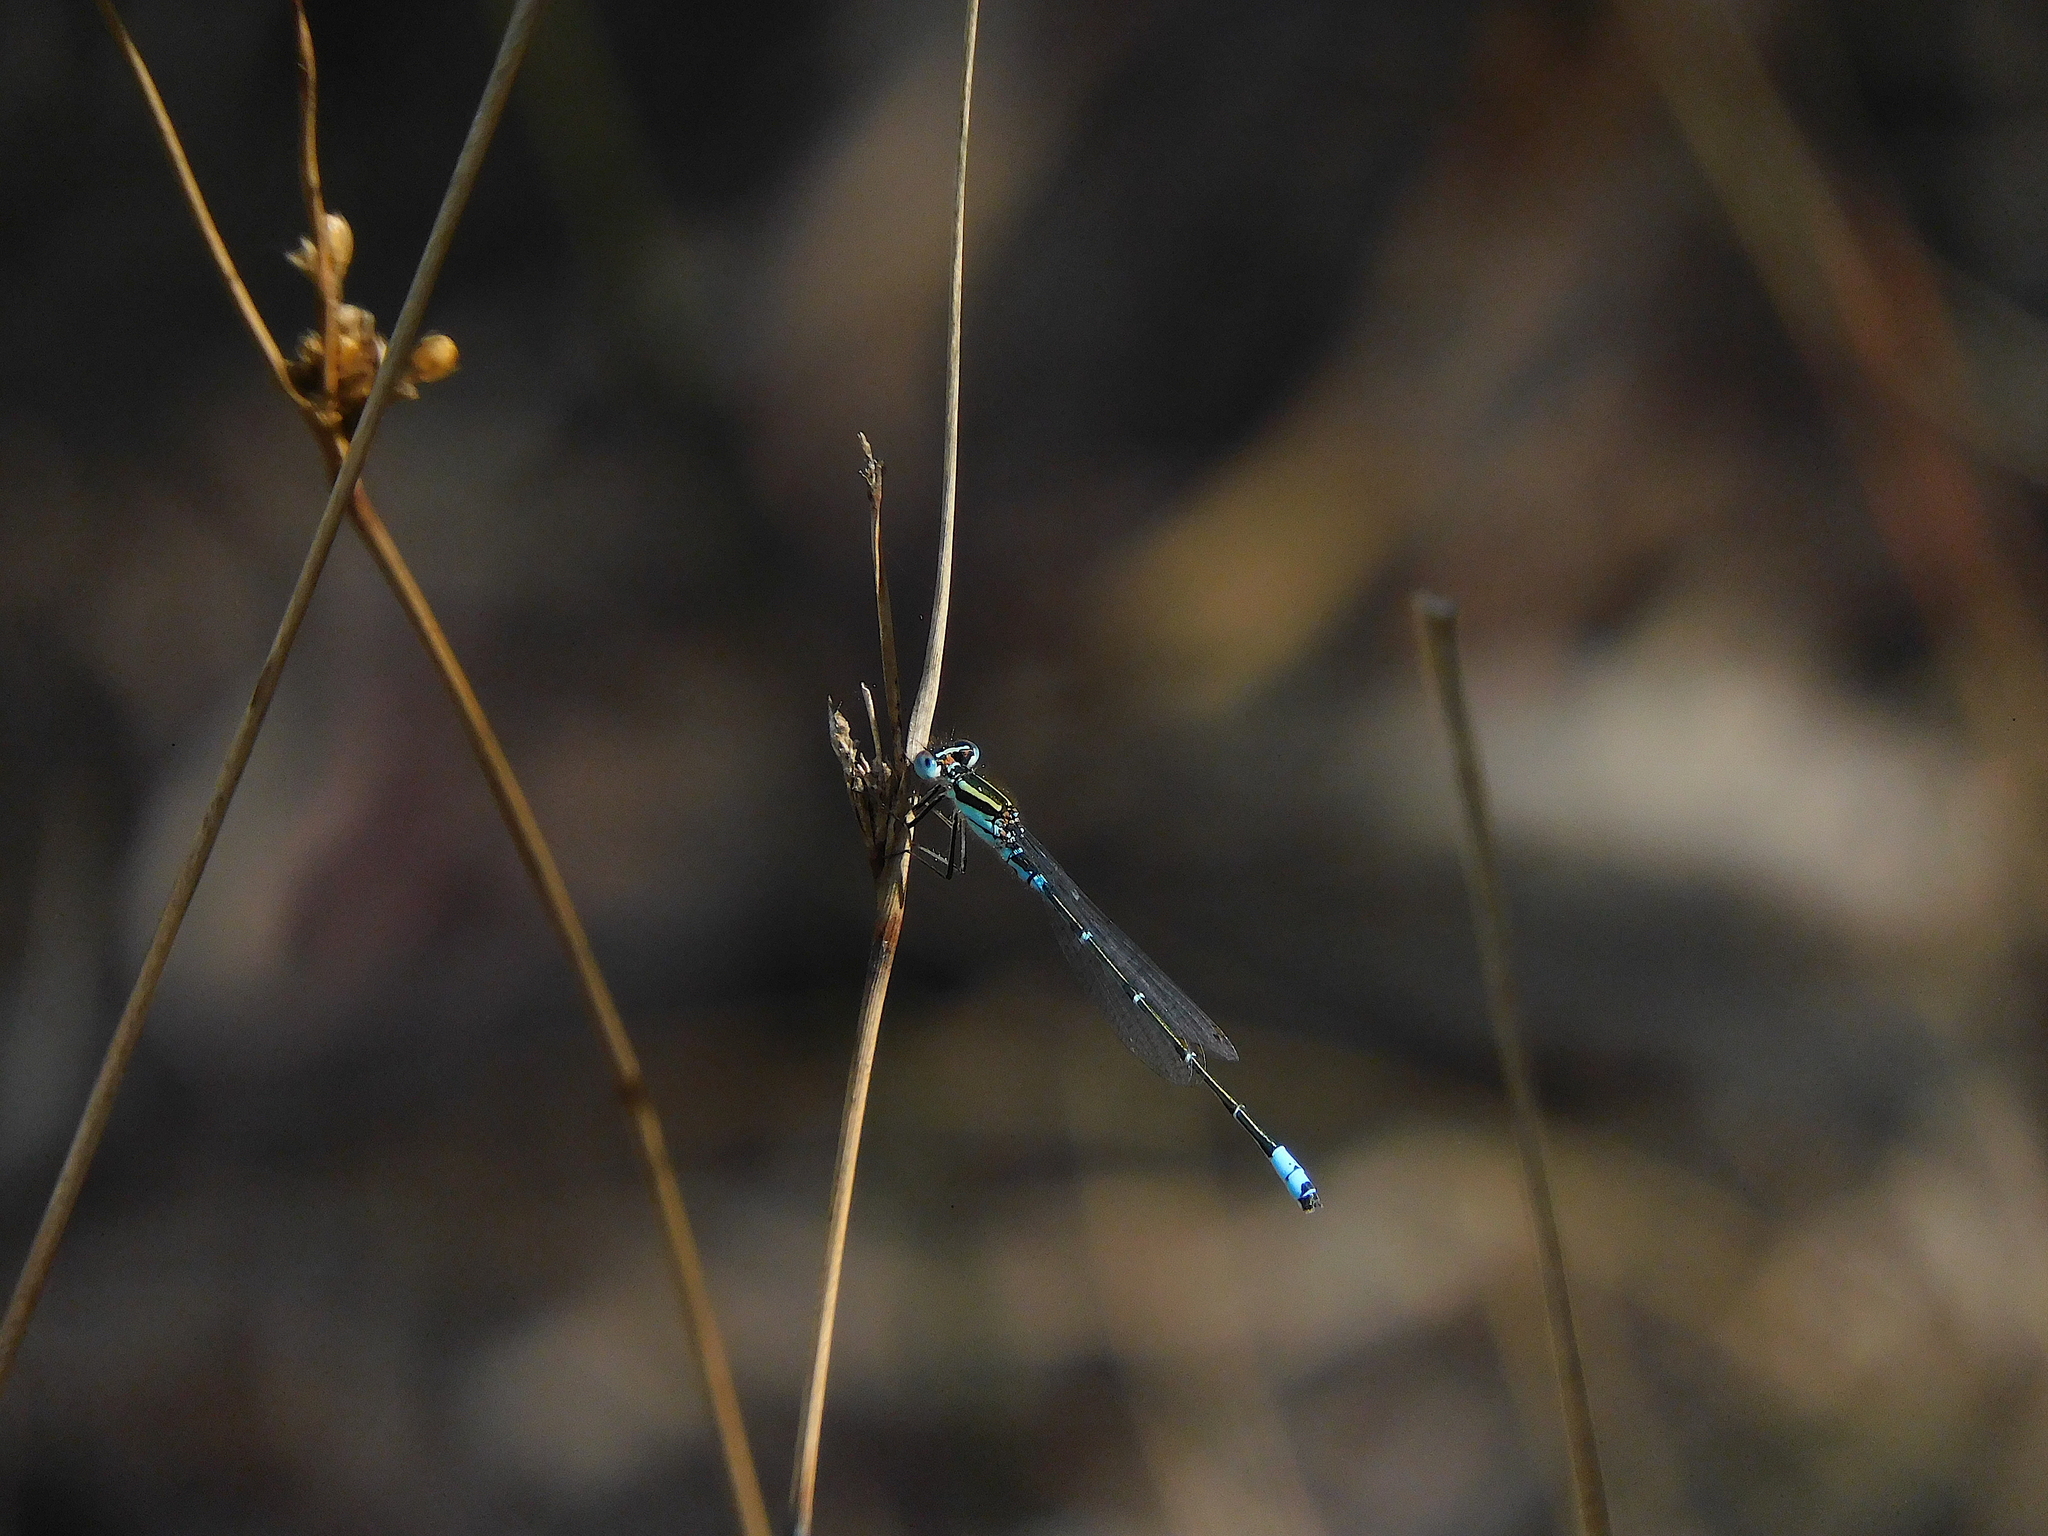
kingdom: Animalia
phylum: Arthropoda
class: Insecta
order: Odonata
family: Coenagrionidae
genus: Austroagrion
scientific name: Austroagrion watsoni
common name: Eastern billabongfly
